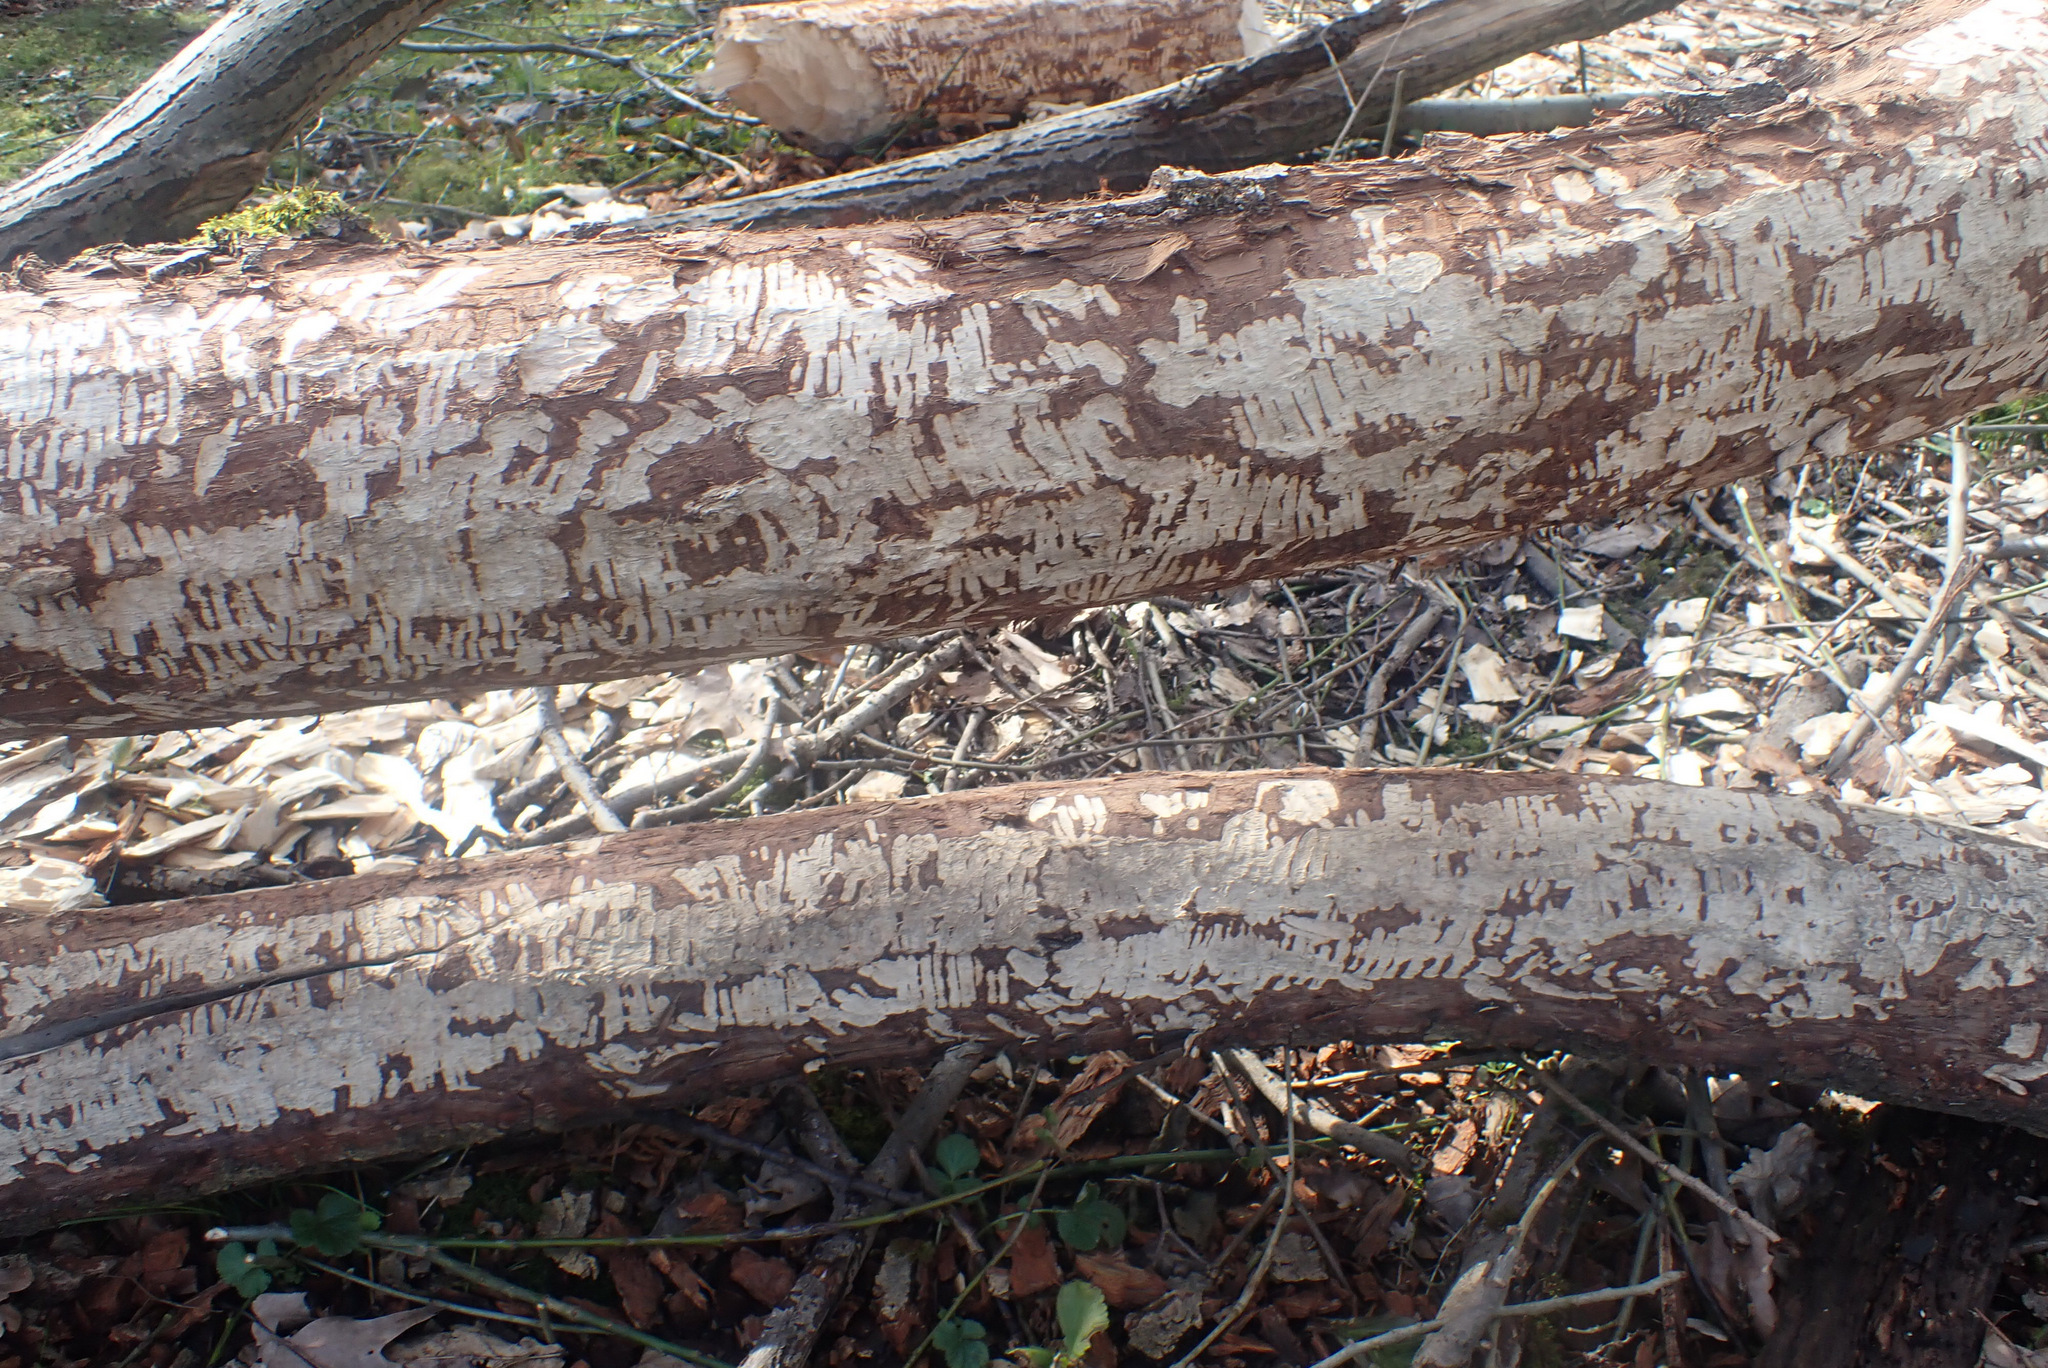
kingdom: Animalia
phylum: Chordata
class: Mammalia
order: Rodentia
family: Castoridae
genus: Castor
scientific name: Castor fiber
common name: Eurasian beaver
